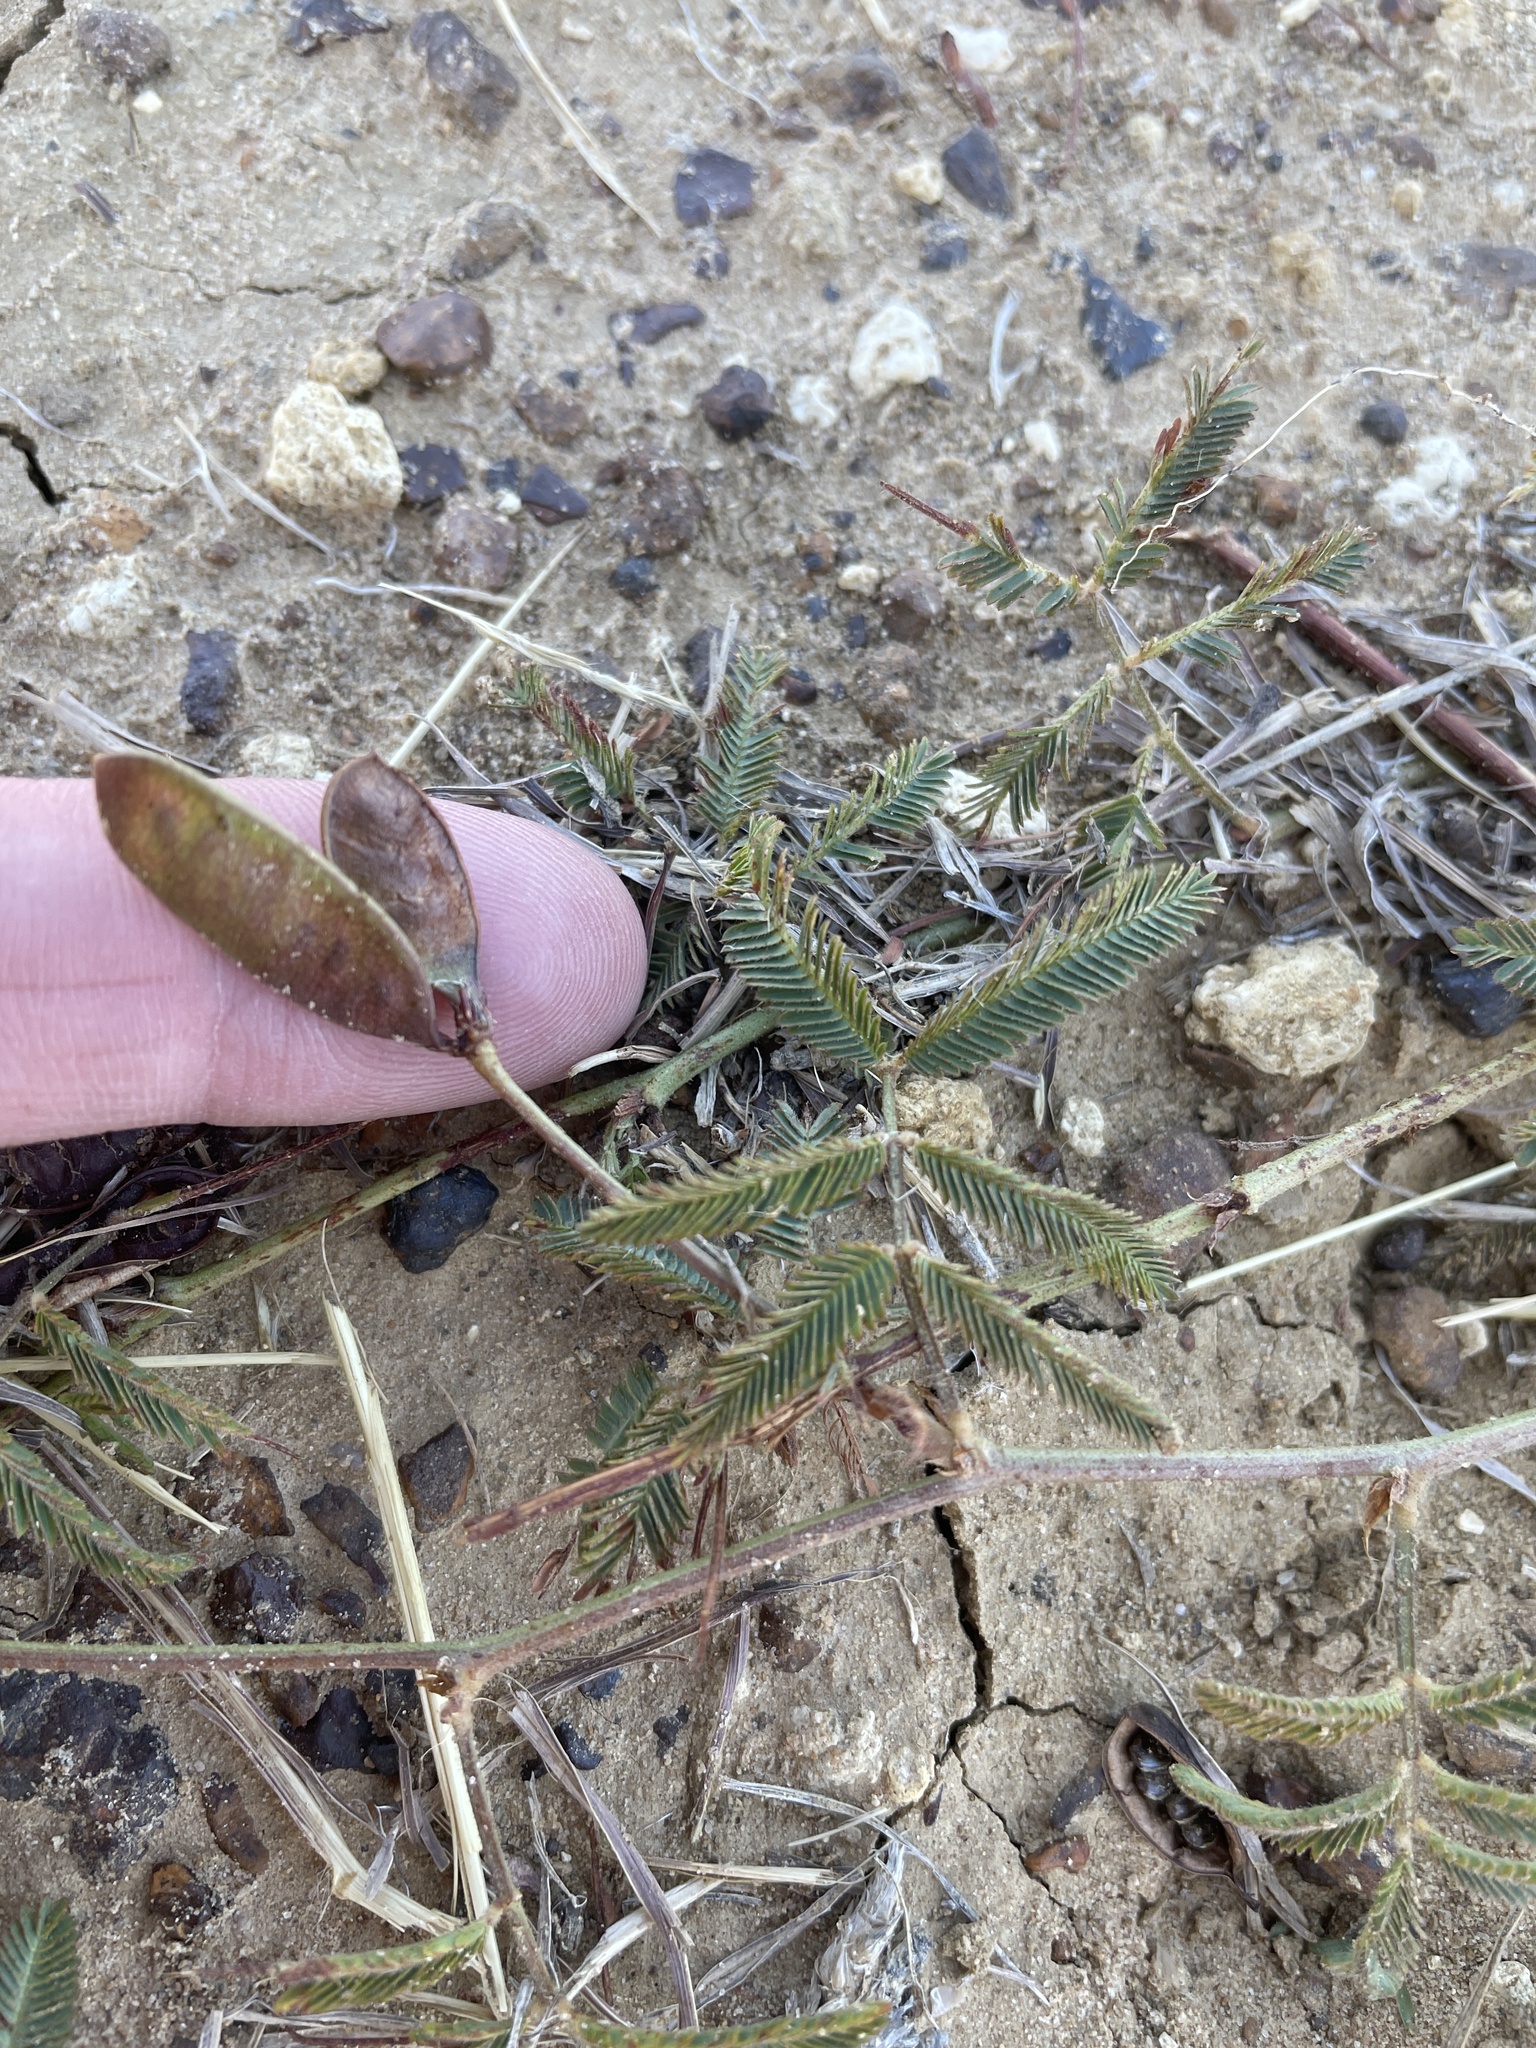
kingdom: Plantae
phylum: Tracheophyta
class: Magnoliopsida
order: Fabales
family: Fabaceae
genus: Neptunia
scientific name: Neptunia lutea
